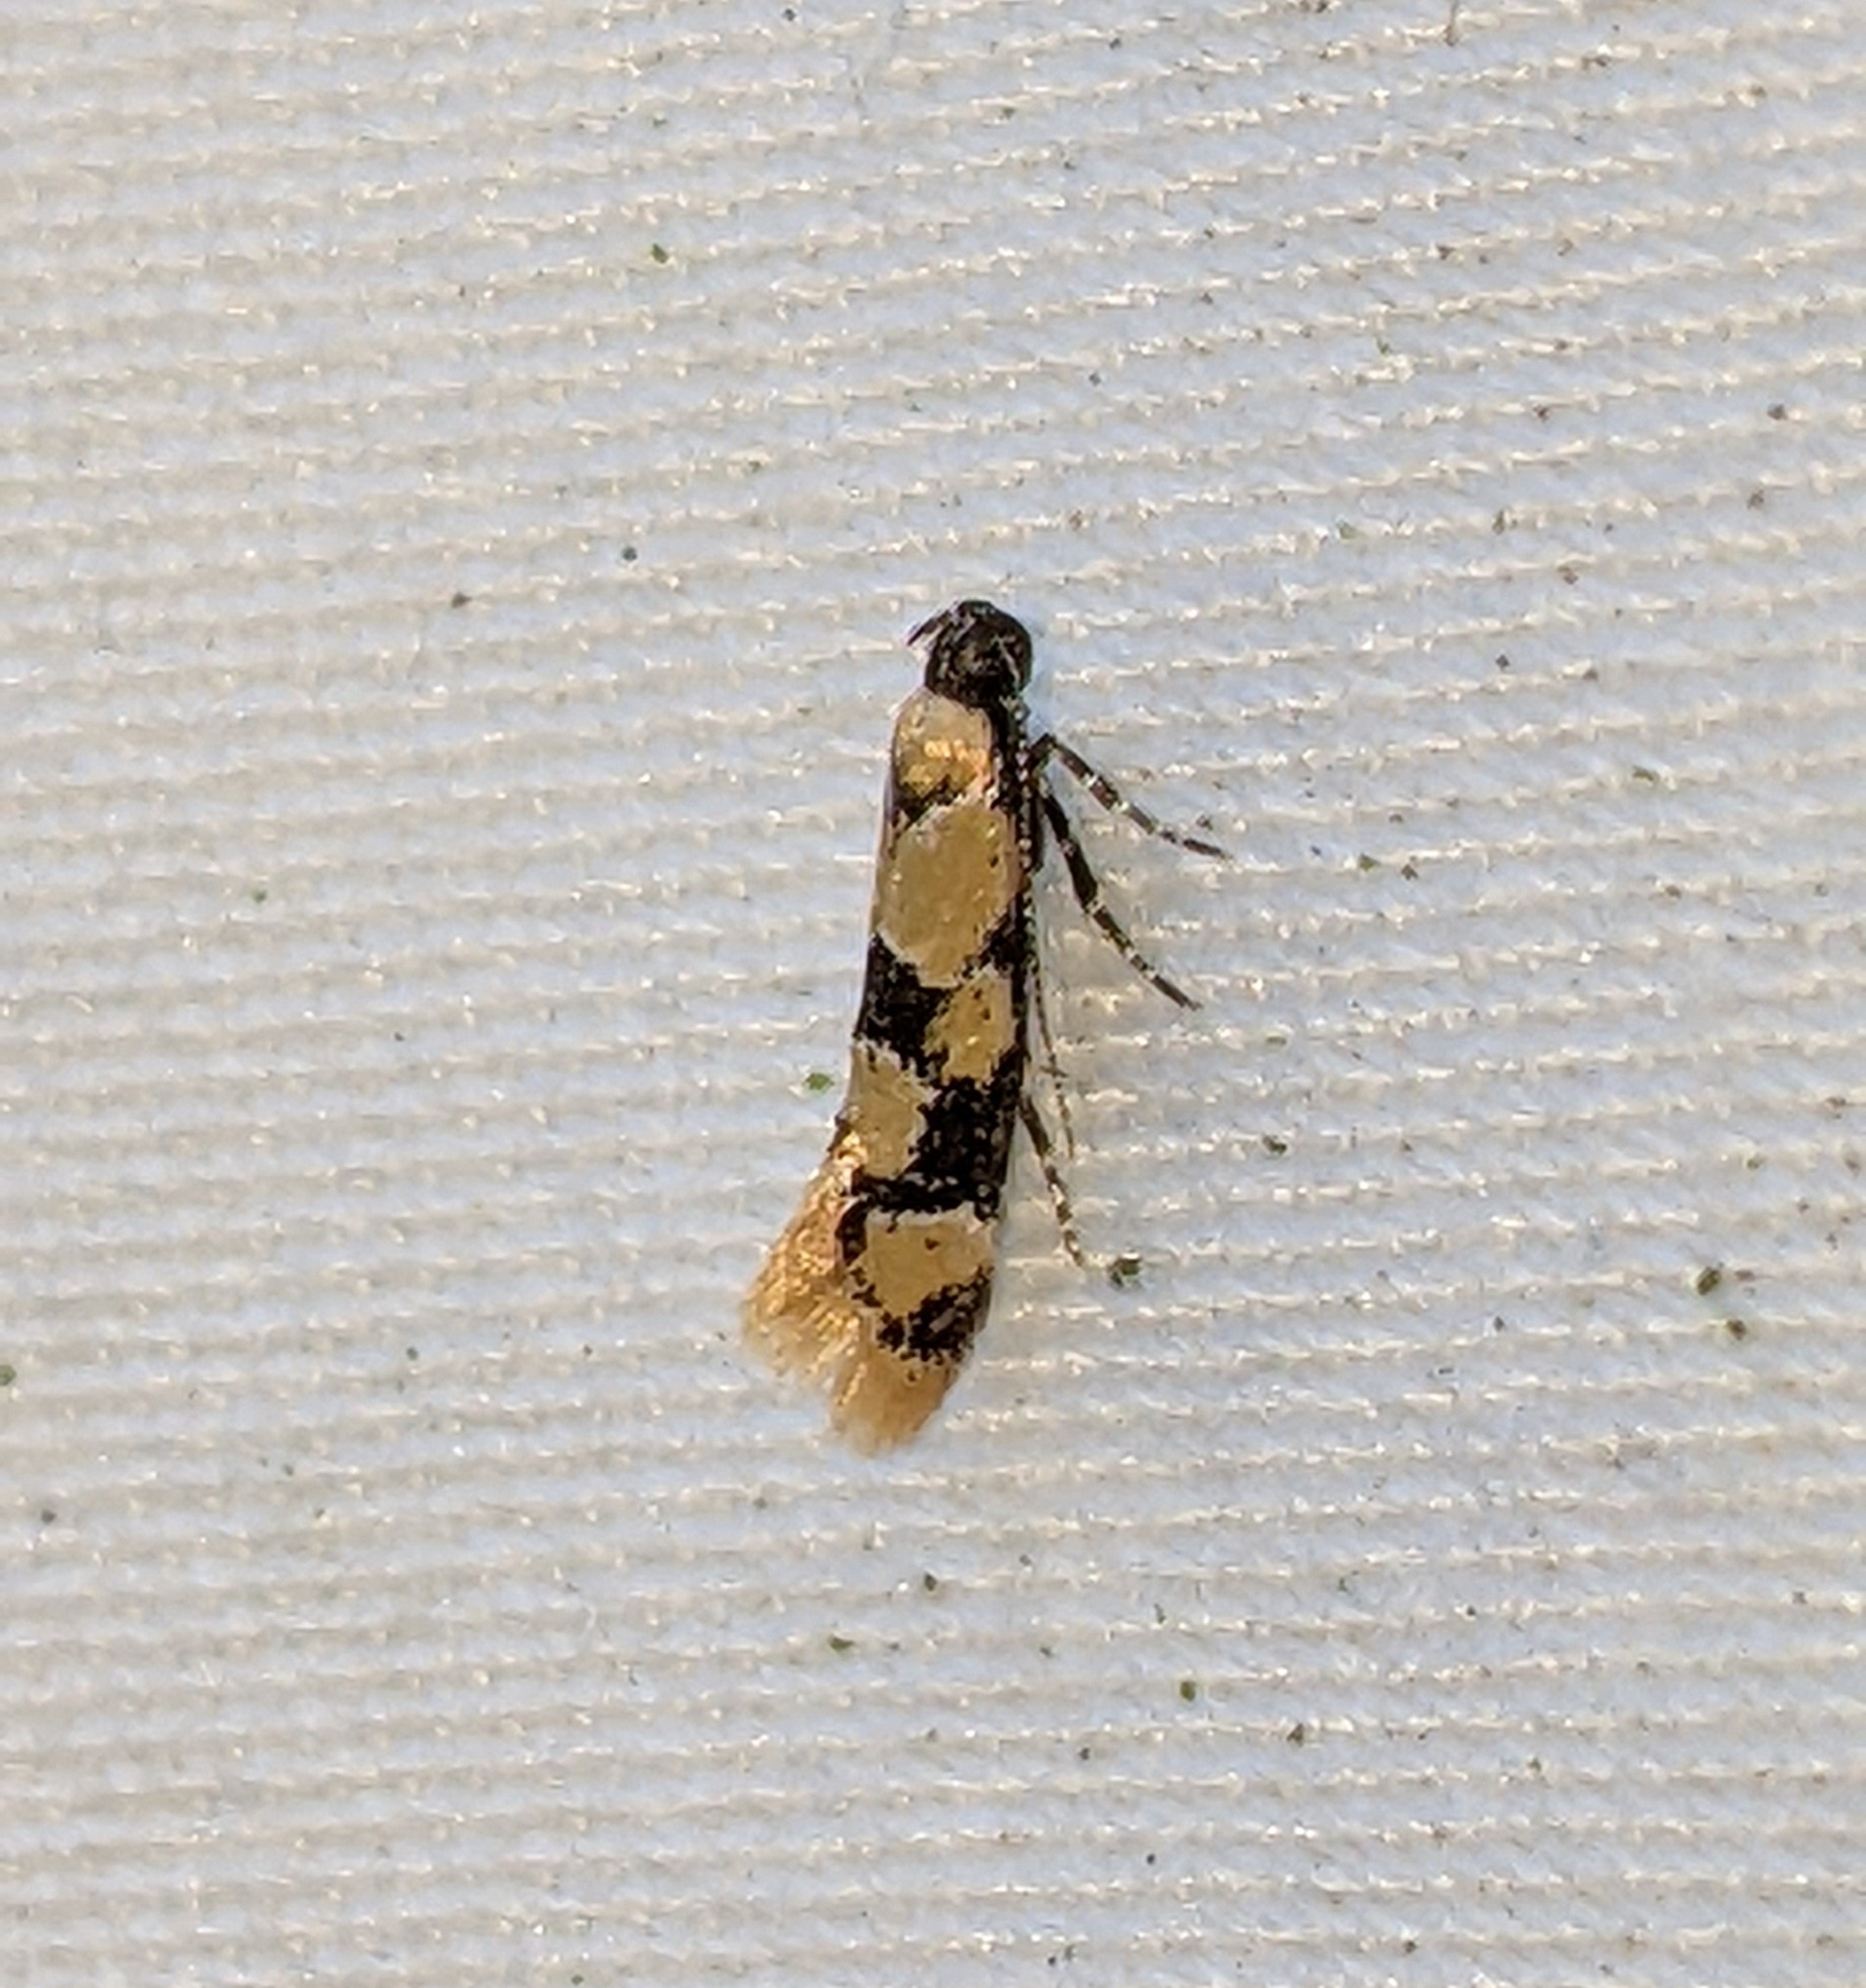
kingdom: Animalia
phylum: Arthropoda
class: Insecta
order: Lepidoptera
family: Oecophoridae
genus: Decantha
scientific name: Decantha stonda
